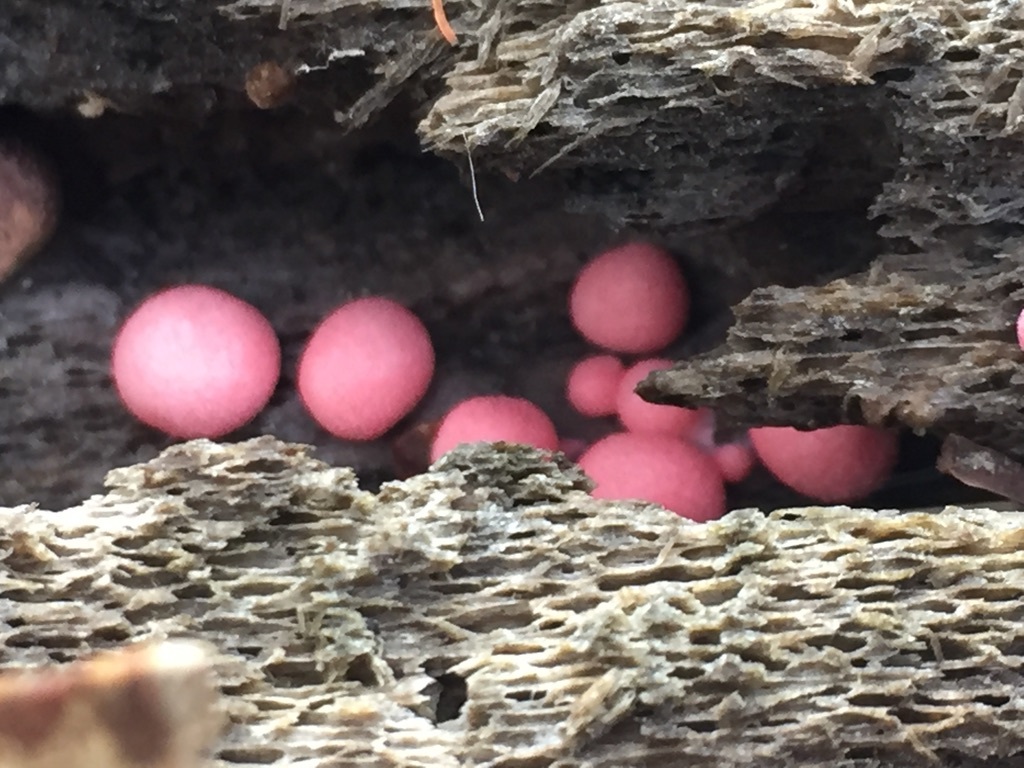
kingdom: Protozoa
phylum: Mycetozoa
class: Myxomycetes
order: Cribrariales
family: Tubiferaceae
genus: Lycogala
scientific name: Lycogala epidendrum
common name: Wolf's milk
